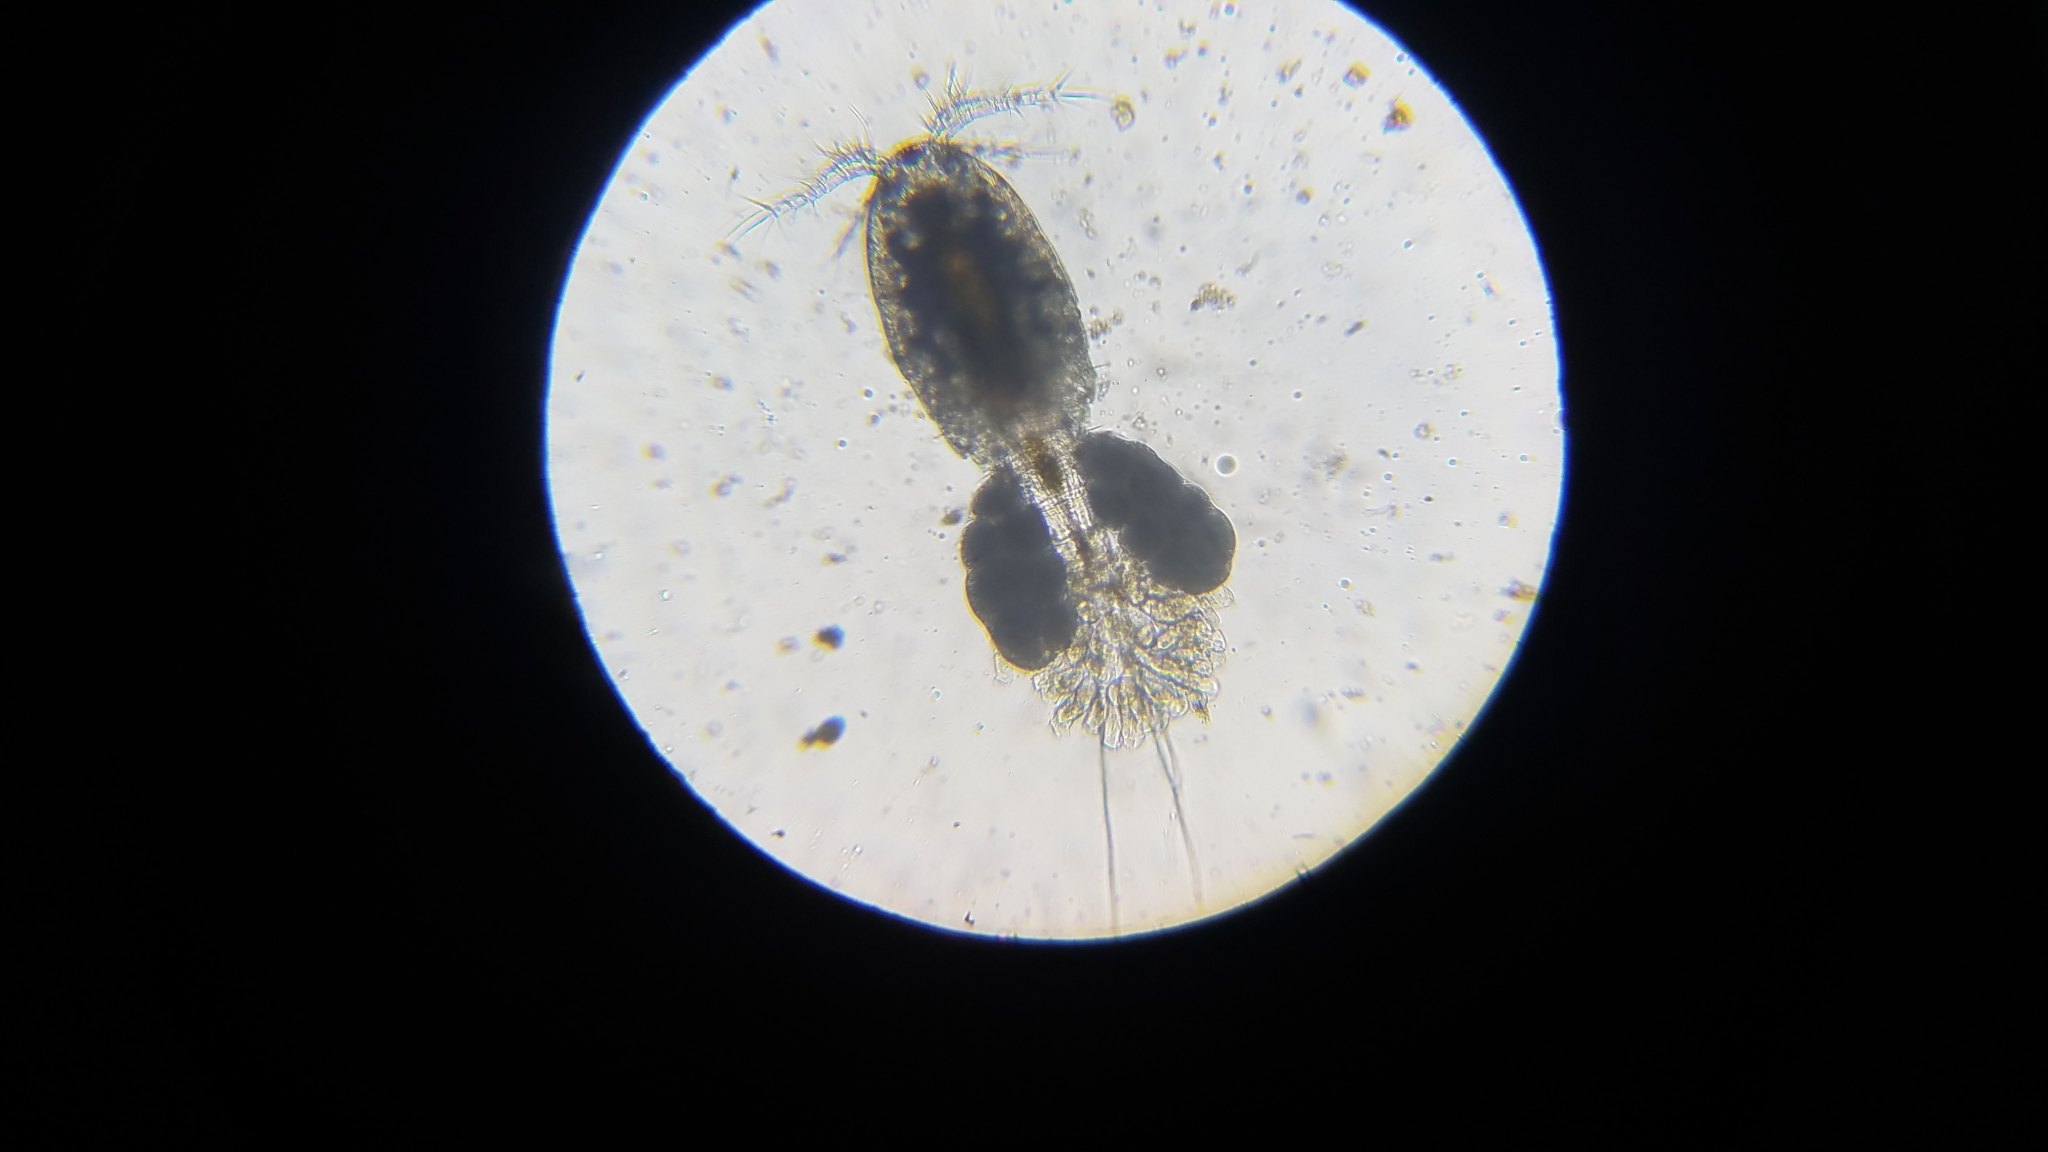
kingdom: Animalia
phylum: Arthropoda
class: Copepoda
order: Cyclopoida
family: Cyclopidae
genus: Paracyclops
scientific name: Paracyclops
